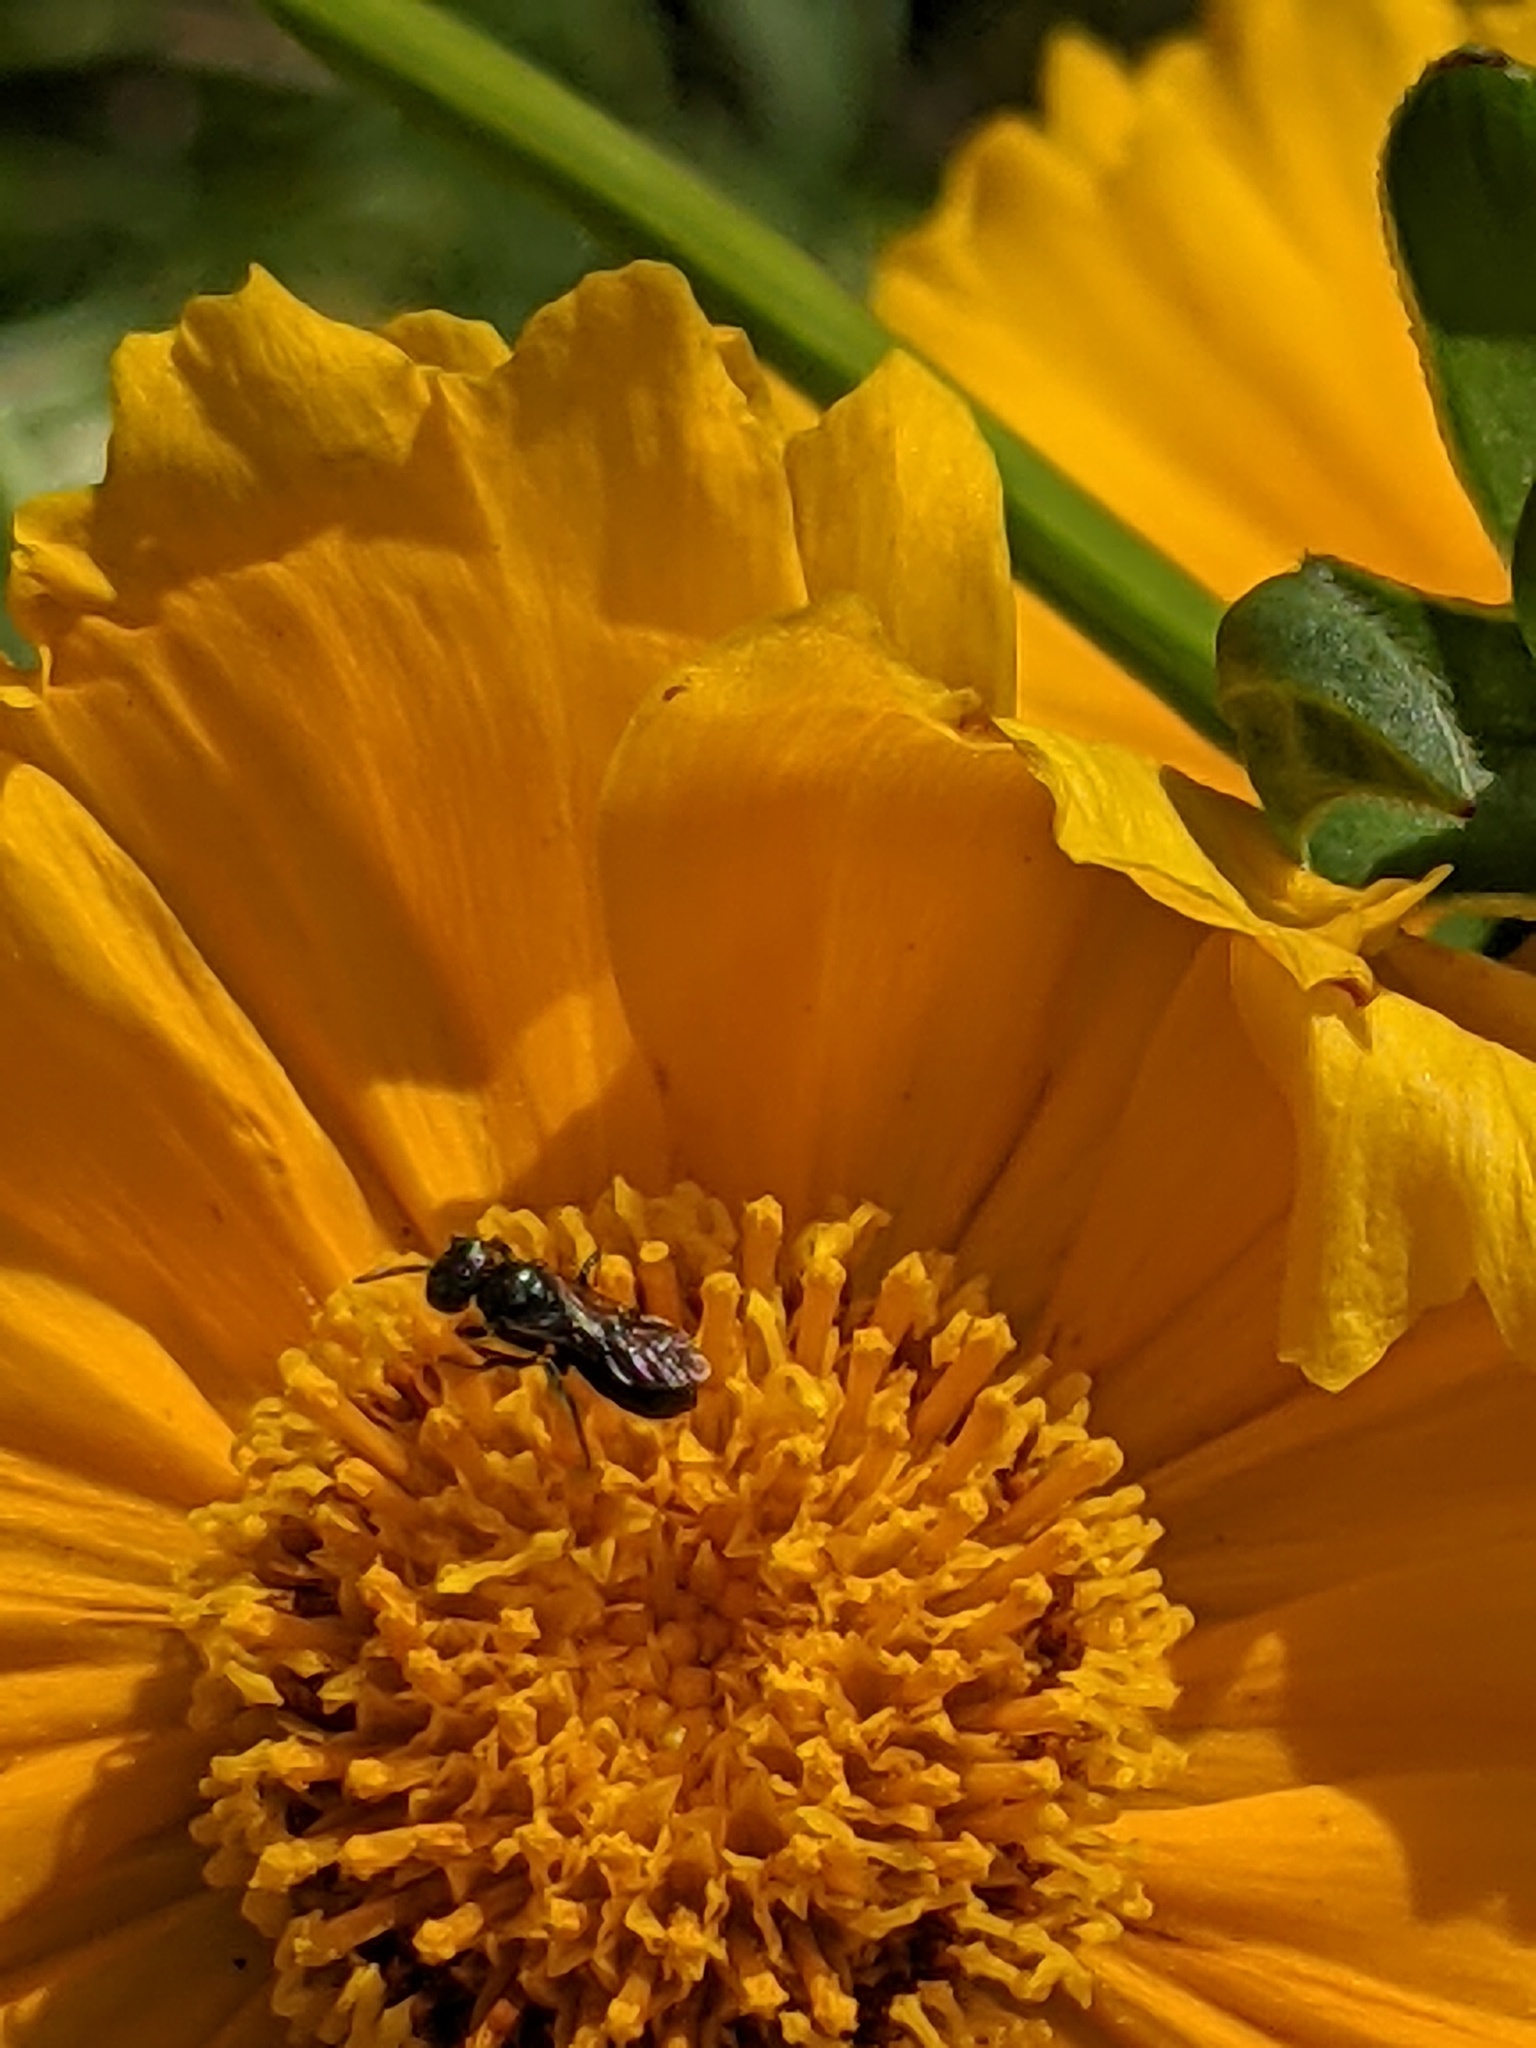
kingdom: Animalia
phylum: Arthropoda
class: Insecta
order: Hymenoptera
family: Apidae
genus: Zadontomerus
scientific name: Zadontomerus
